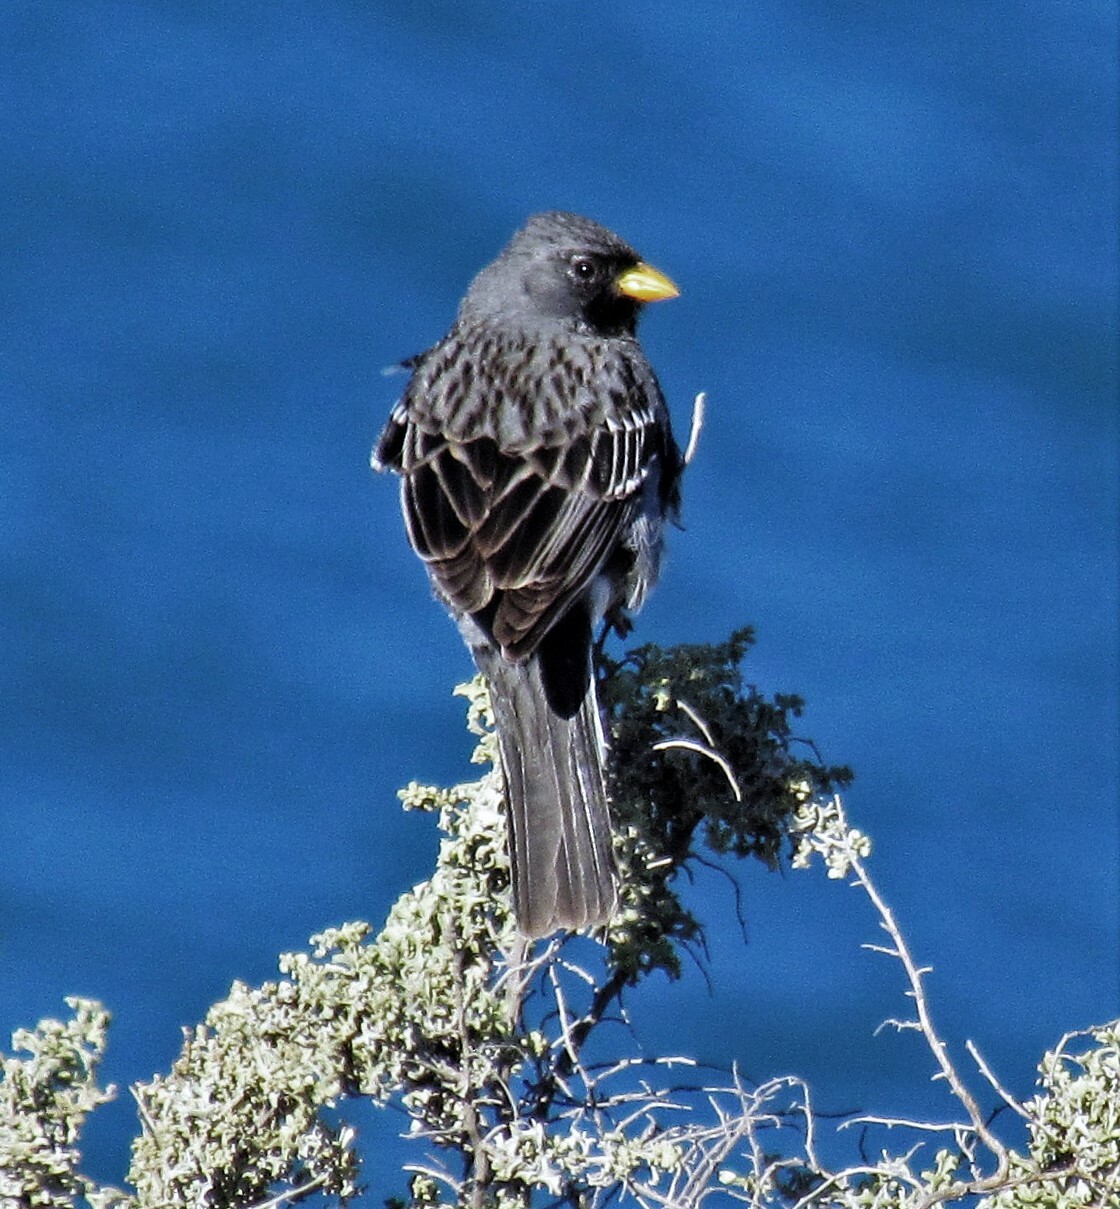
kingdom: Animalia
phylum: Chordata
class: Aves
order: Passeriformes
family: Thraupidae
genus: Rhopospina
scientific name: Rhopospina fruticeti
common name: Mourning sierra finch
